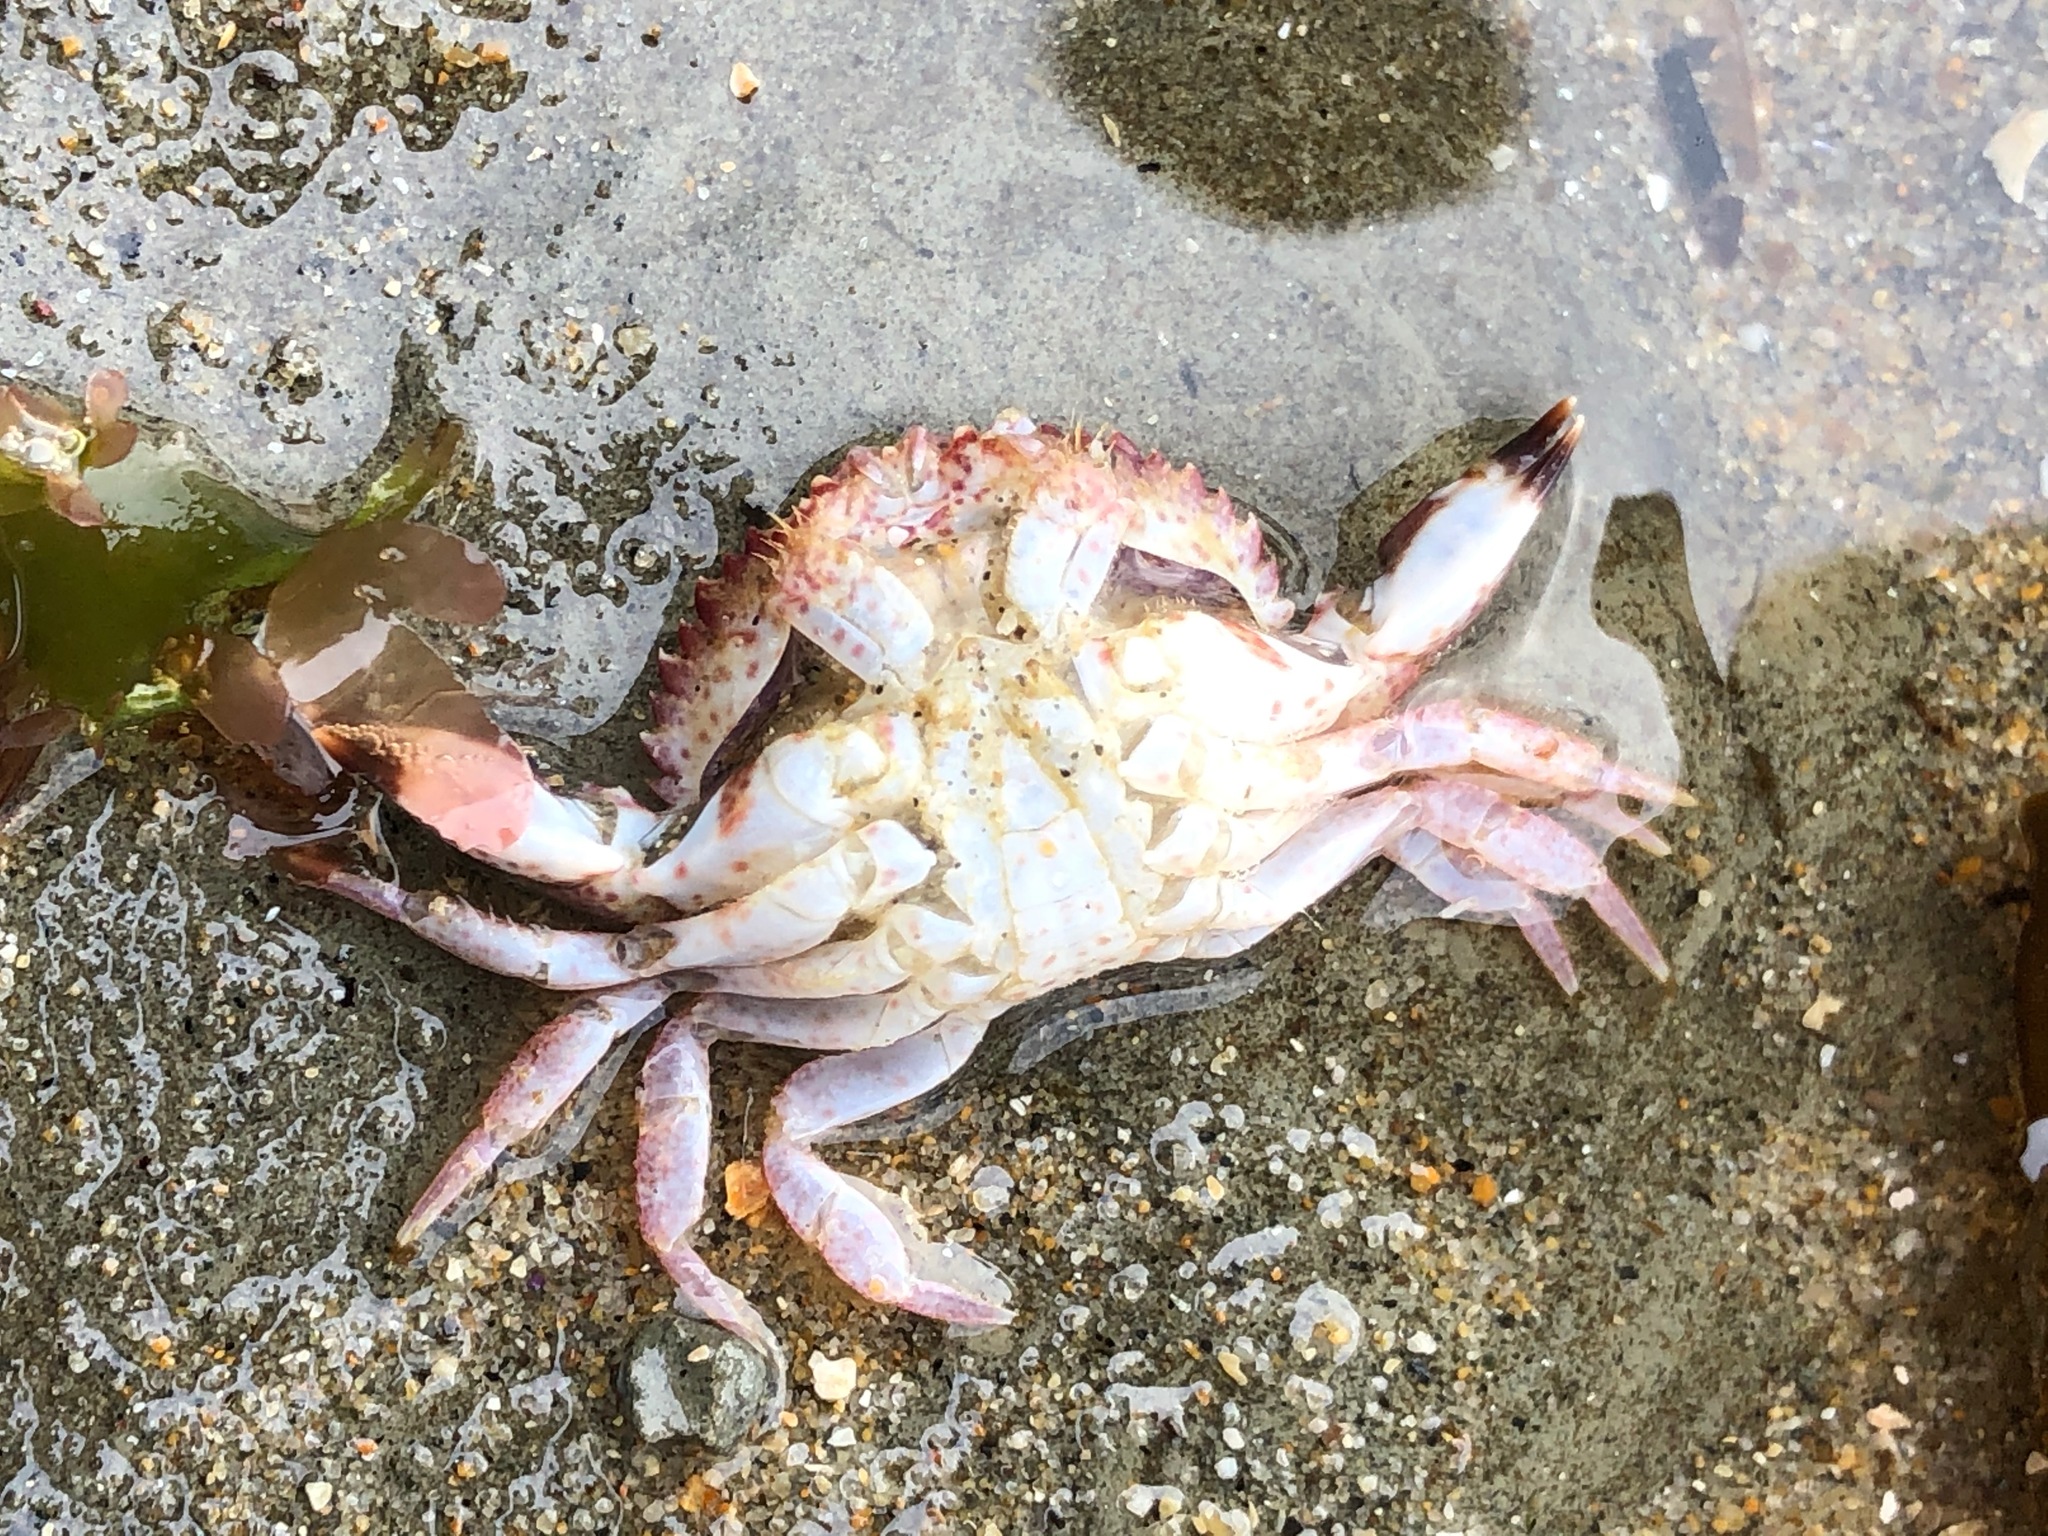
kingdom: Animalia
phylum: Arthropoda
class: Malacostraca
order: Decapoda
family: Cancridae
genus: Romaleon
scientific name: Romaleon antennarium
